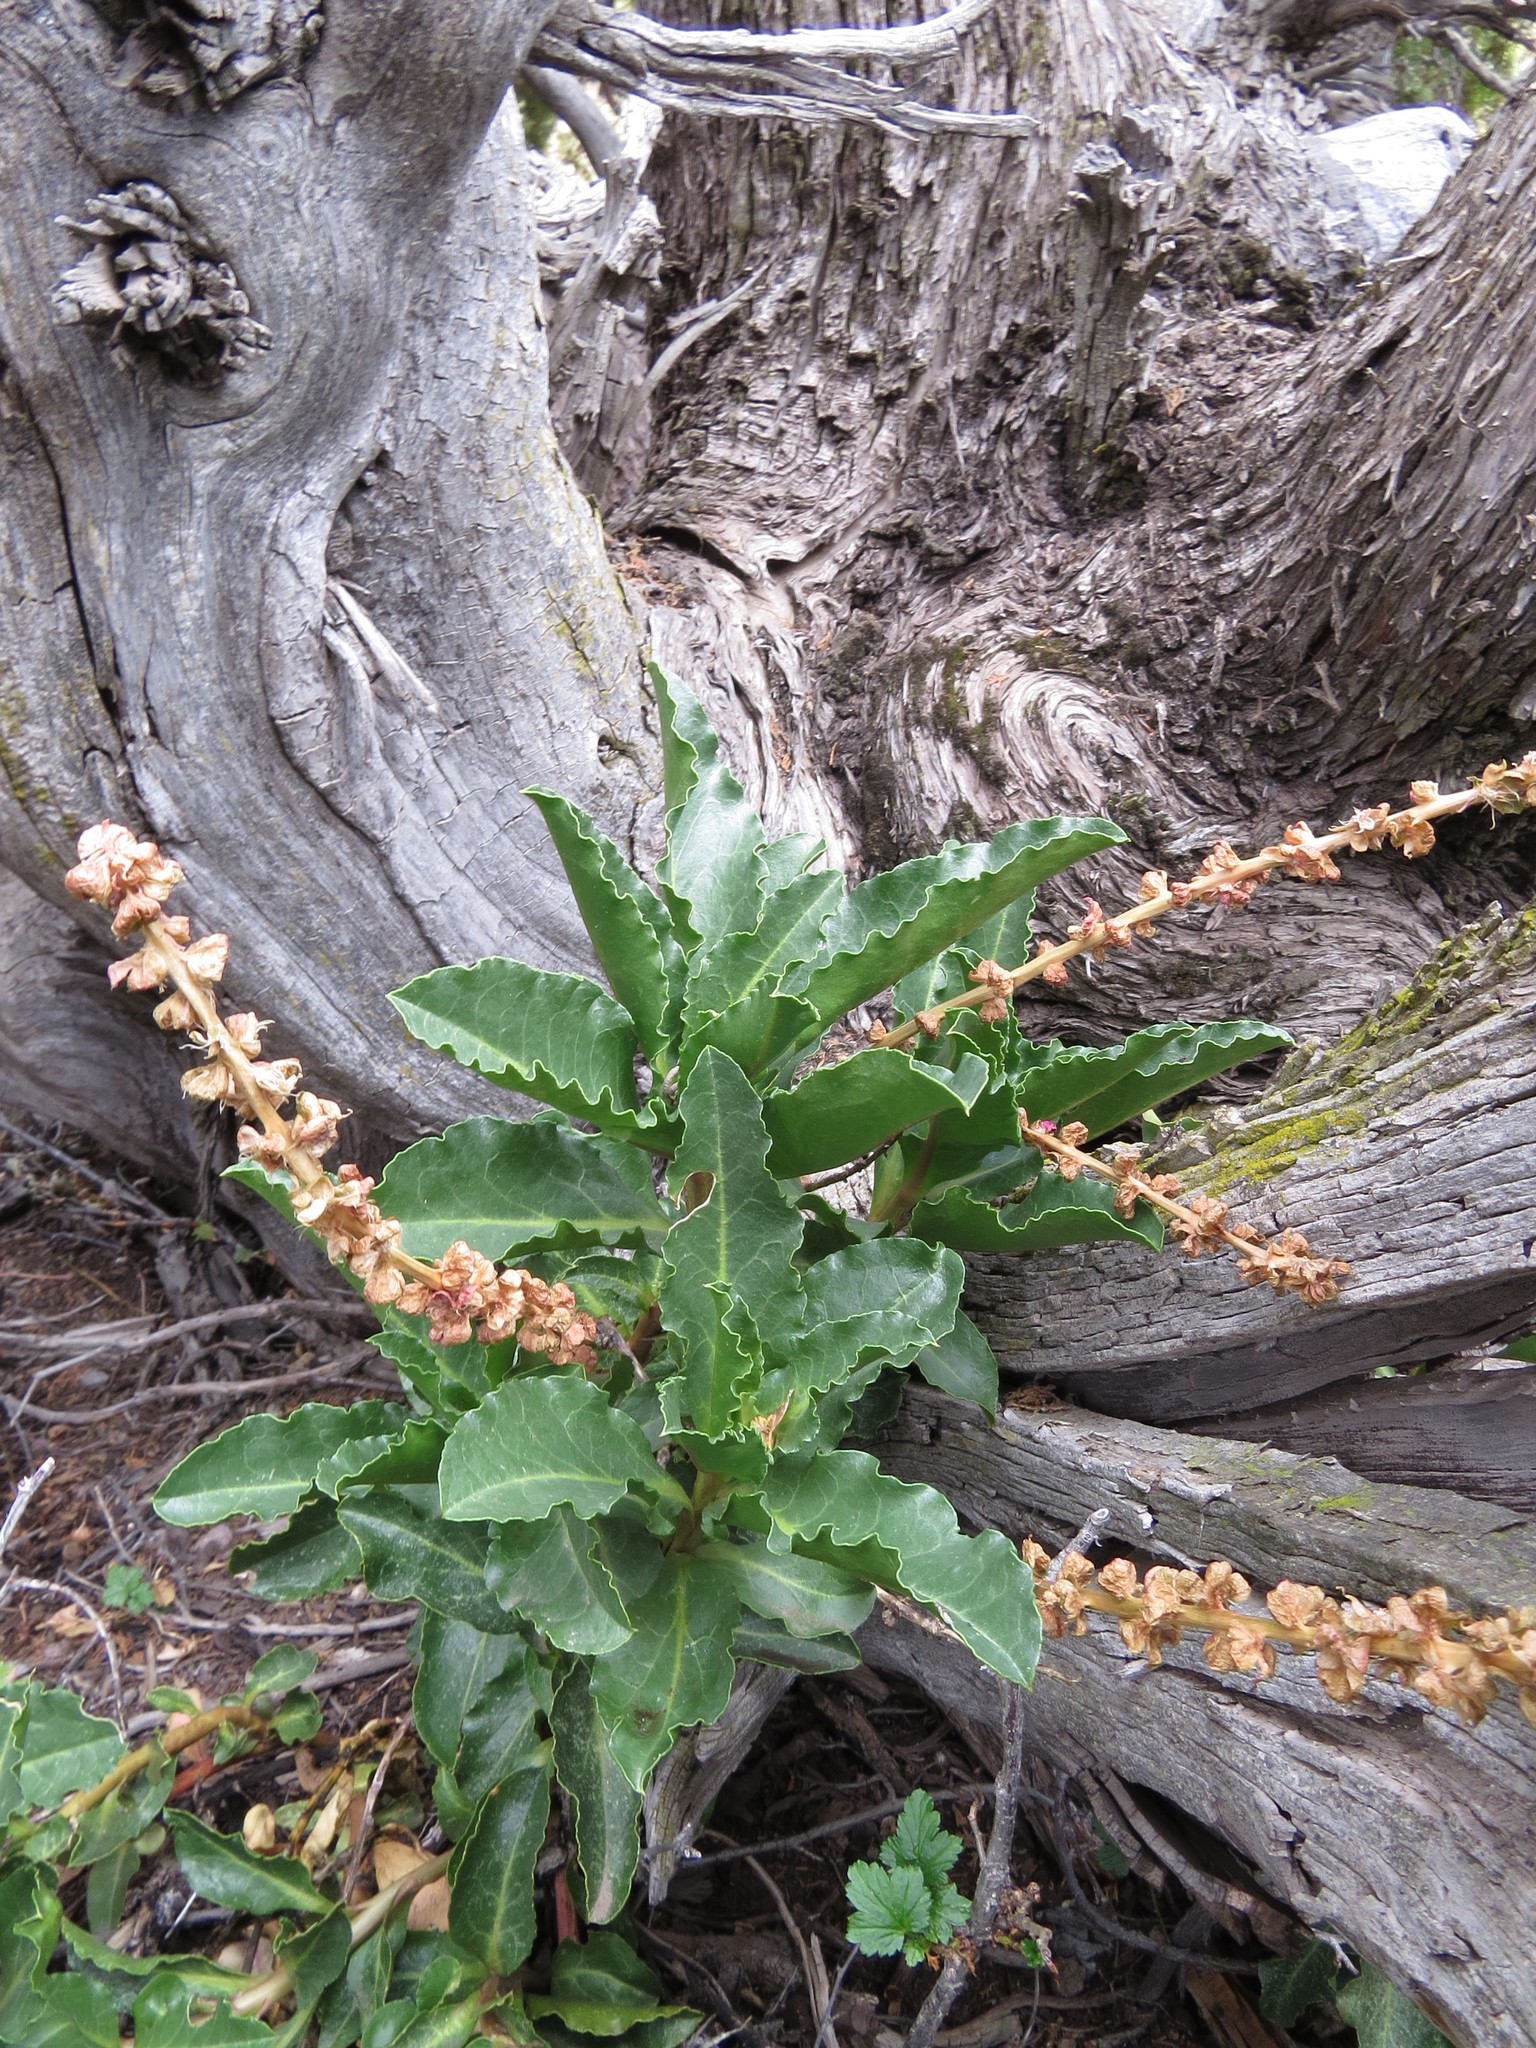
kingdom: Plantae
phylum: Tracheophyta
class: Magnoliopsida
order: Caryophyllales
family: Phytolaccaceae
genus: Anisomeria
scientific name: Anisomeria coriacea
